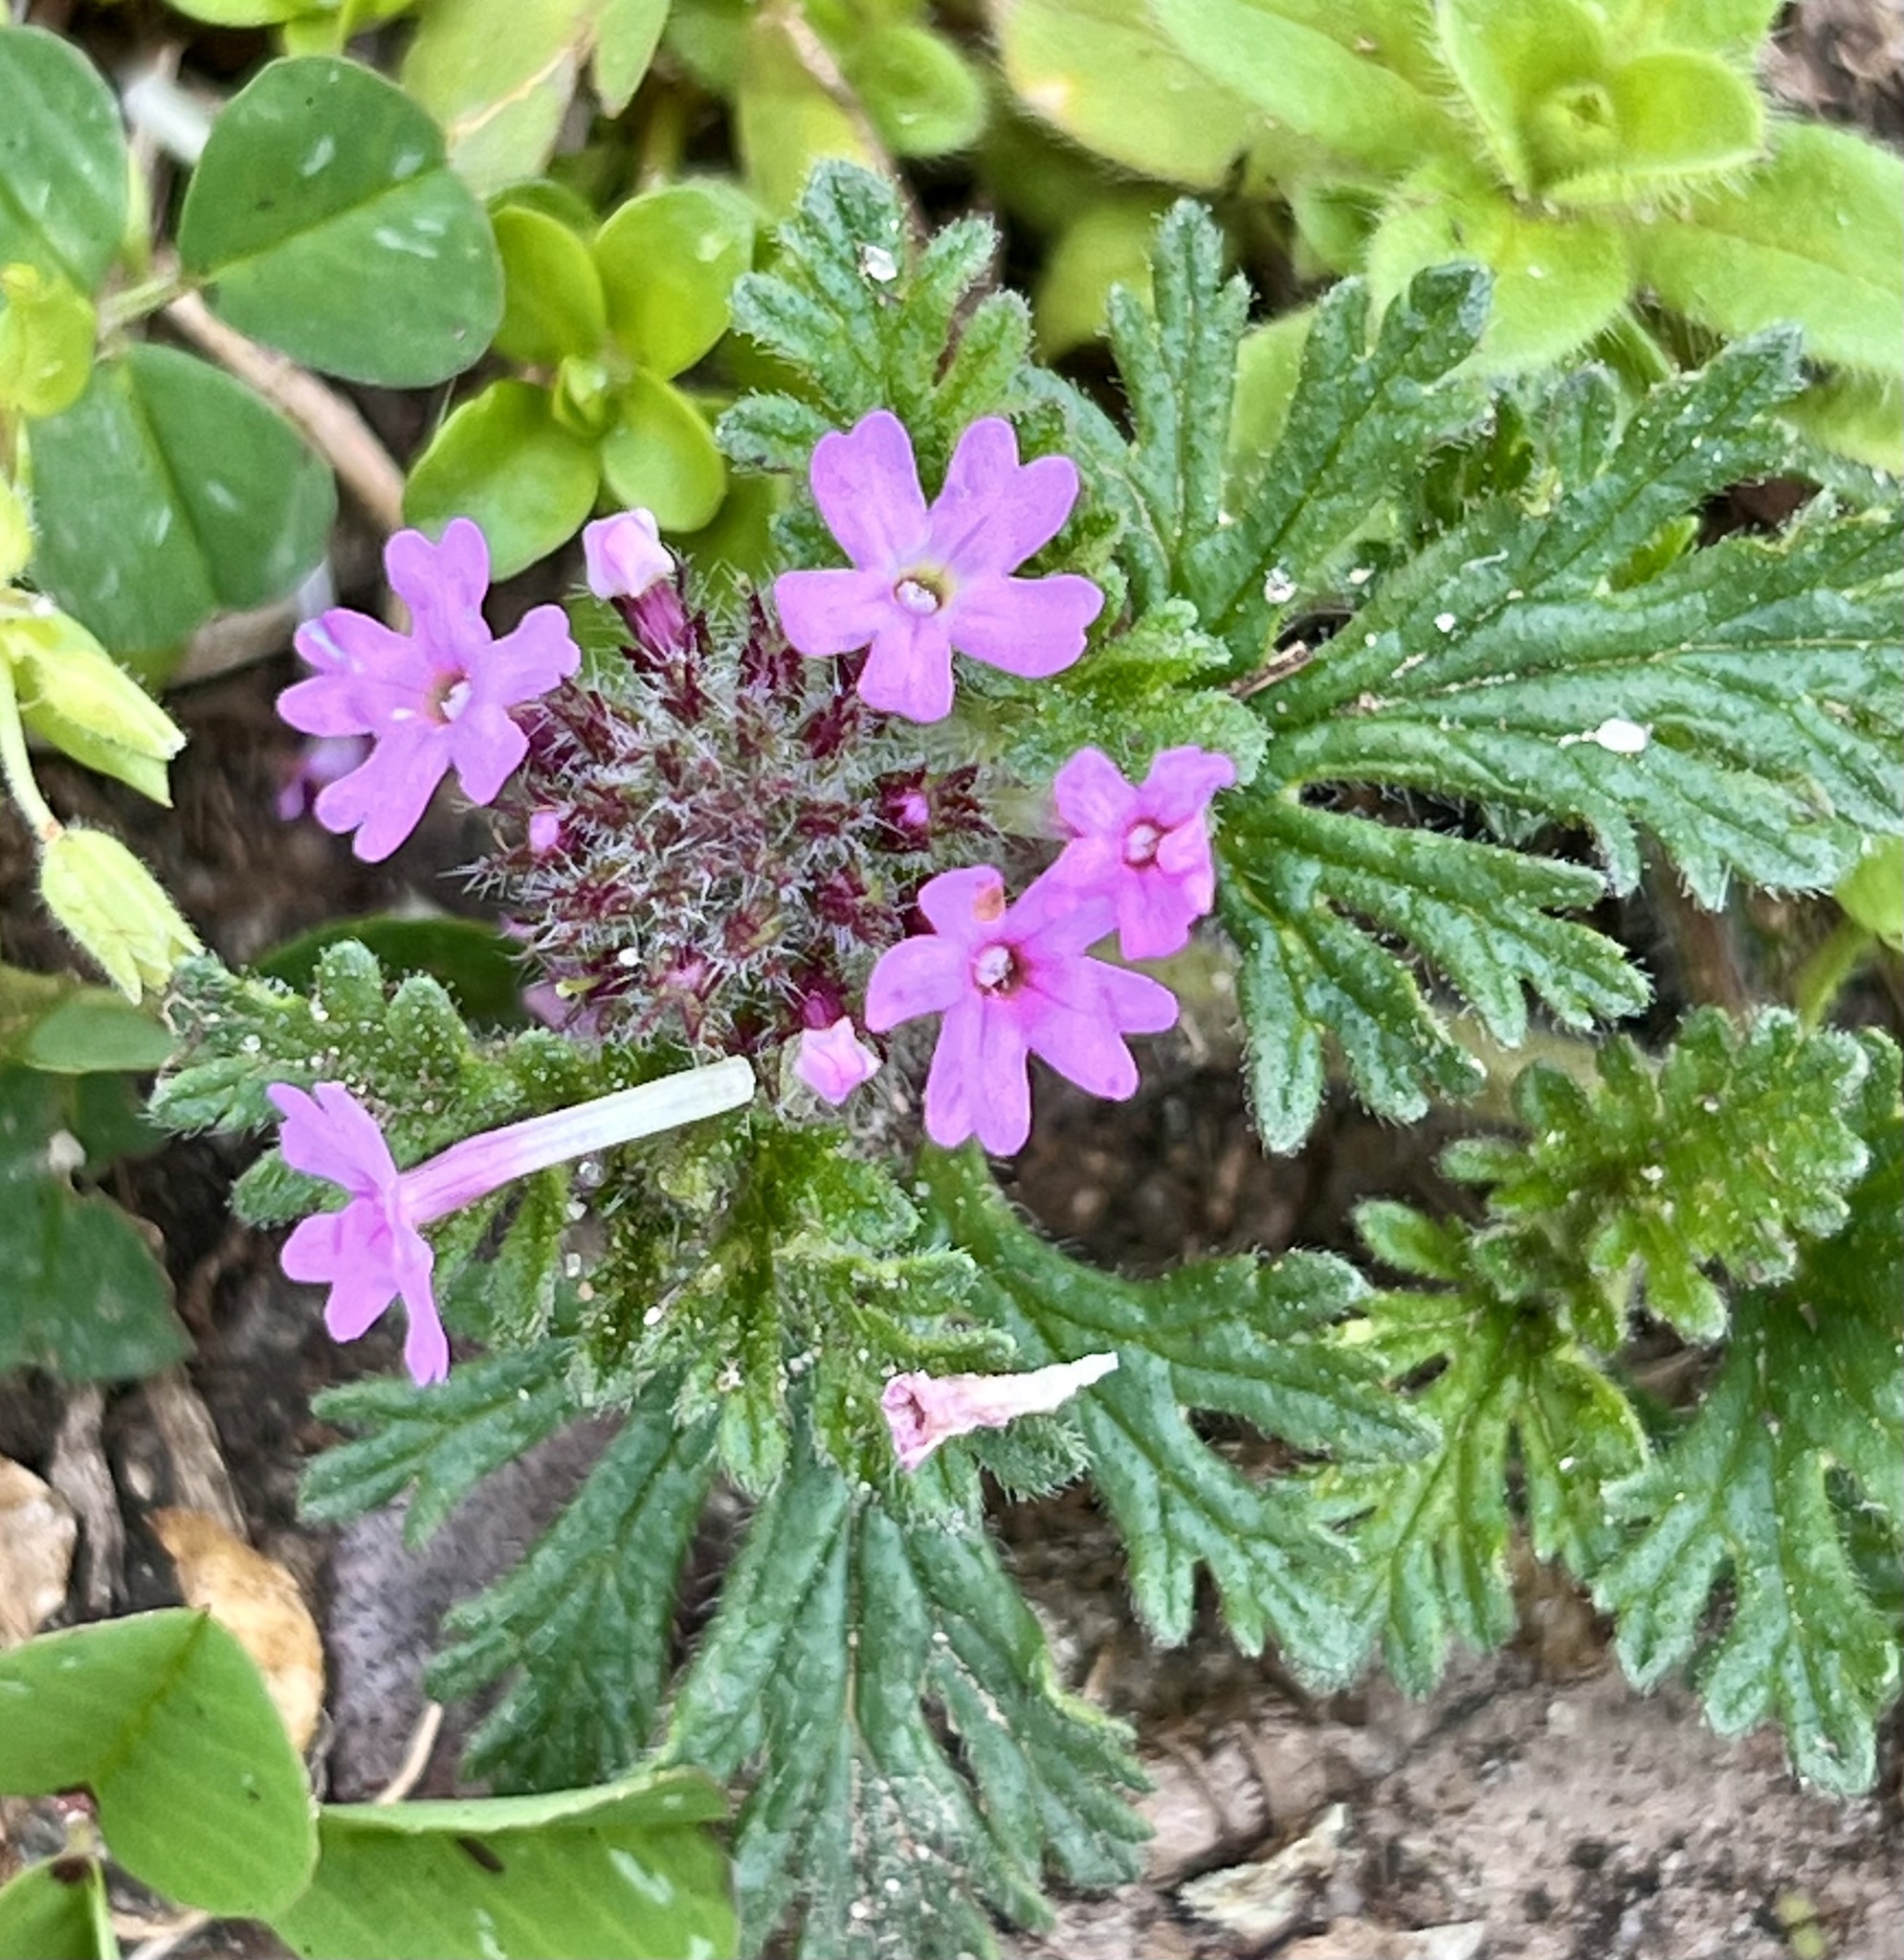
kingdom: Plantae
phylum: Tracheophyta
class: Magnoliopsida
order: Lamiales
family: Verbenaceae
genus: Verbena
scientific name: Verbena pumila
